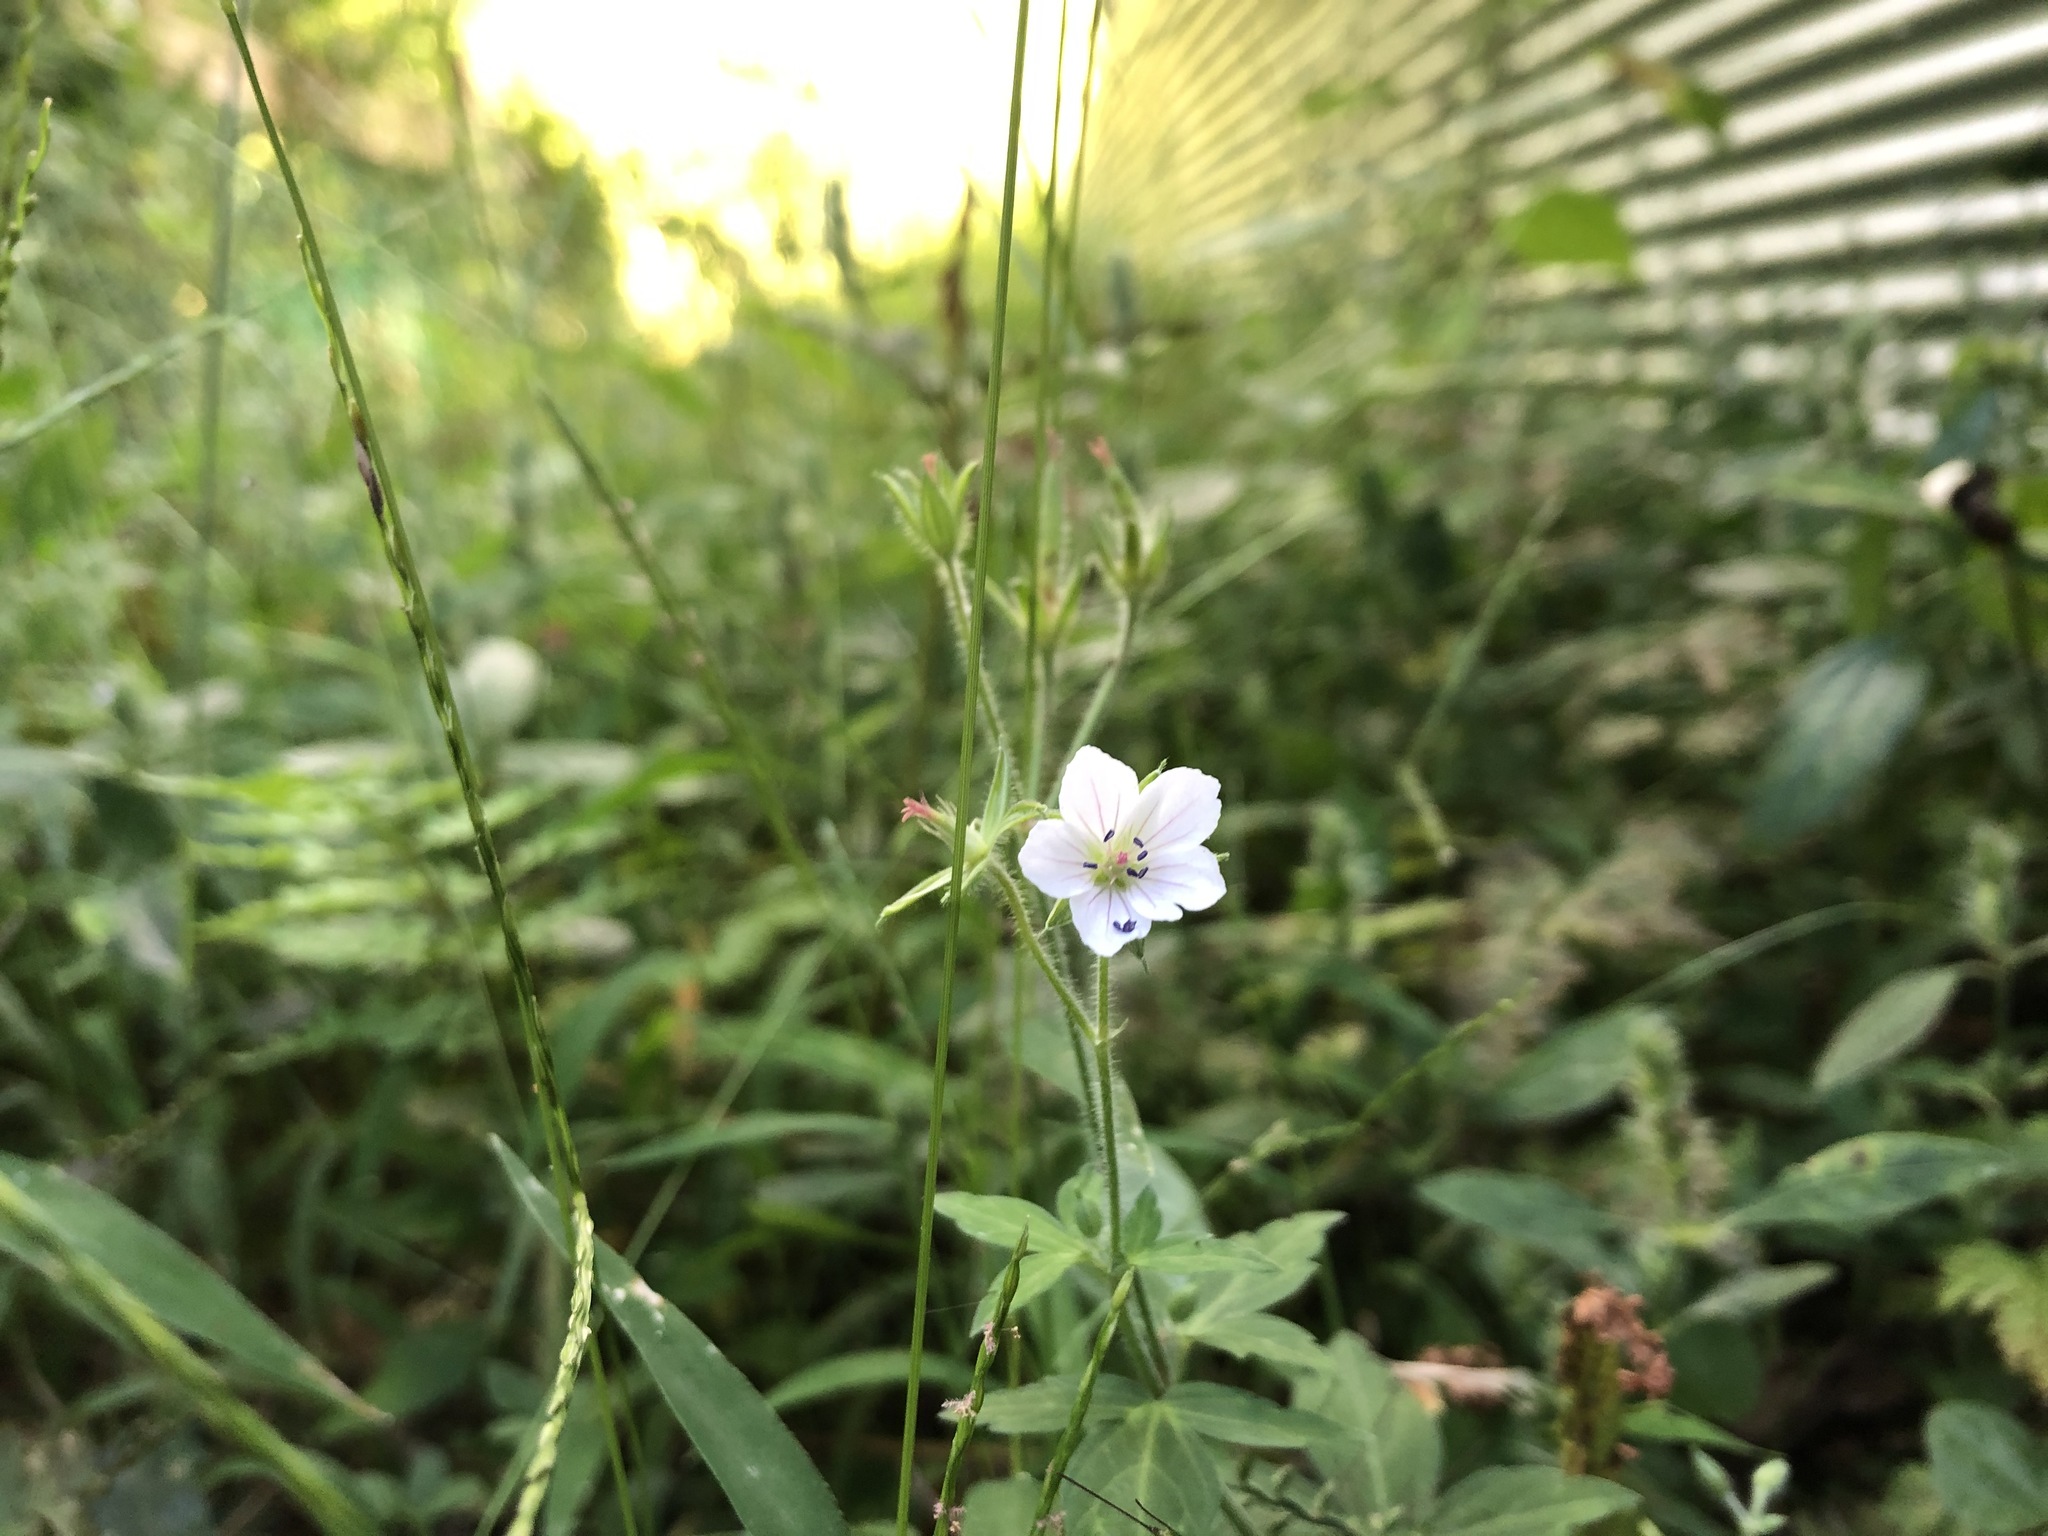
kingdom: Plantae
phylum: Tracheophyta
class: Magnoliopsida
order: Geraniales
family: Geraniaceae
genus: Geranium
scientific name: Geranium thunbergii
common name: Dewdrop crane's-bill
